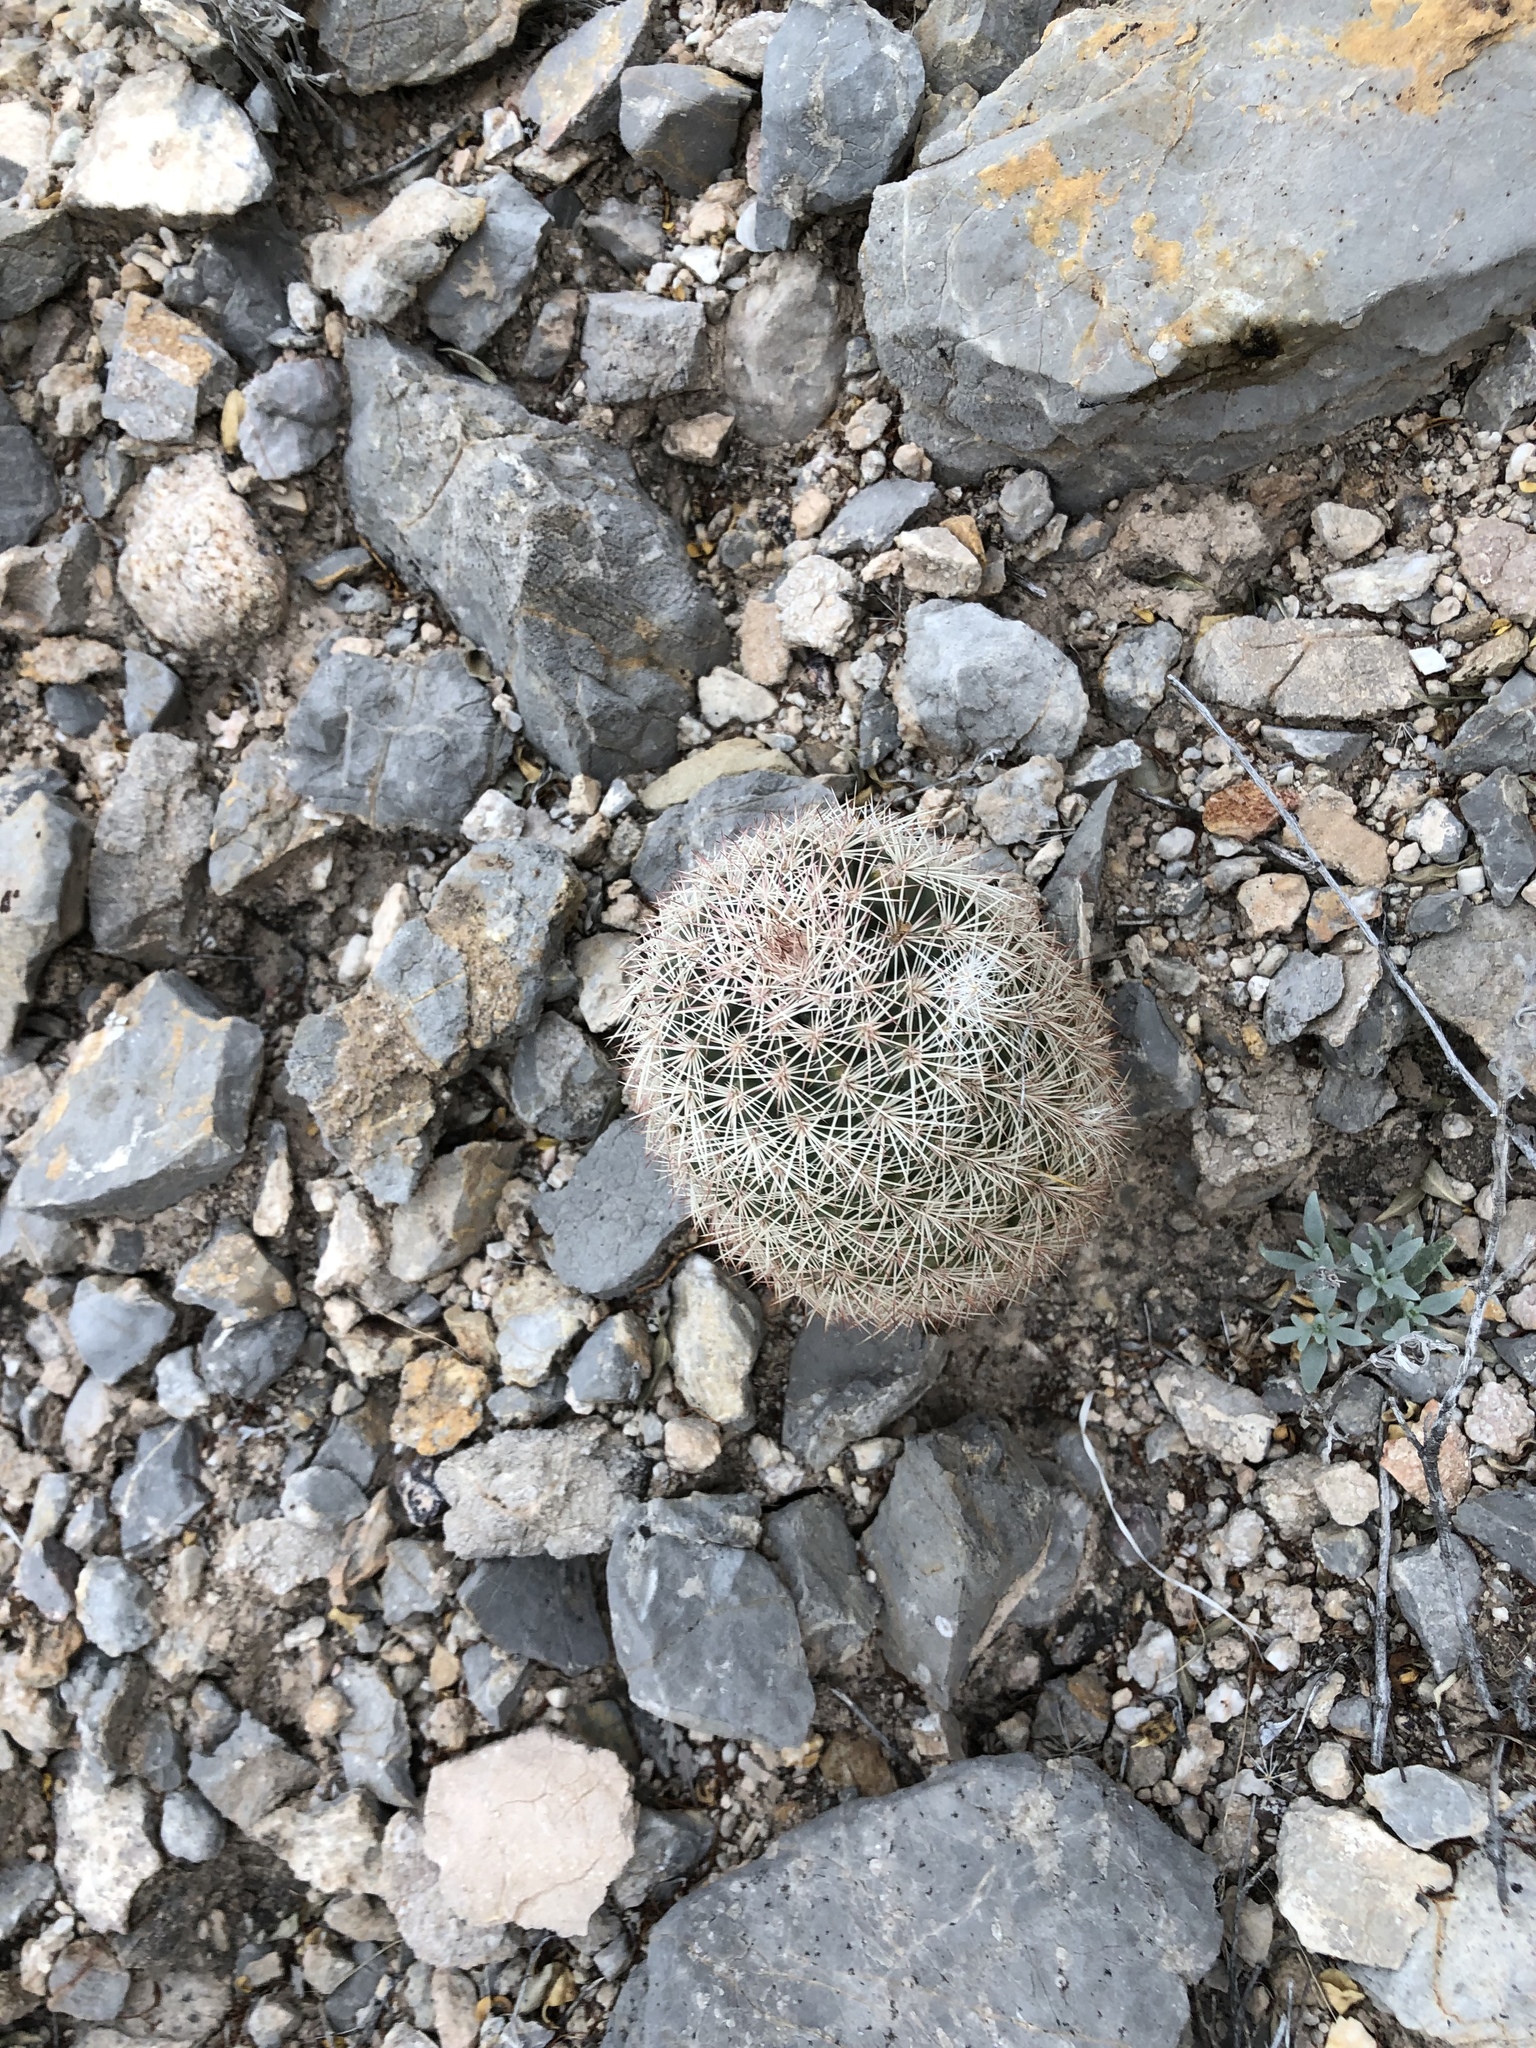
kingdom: Plantae
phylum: Tracheophyta
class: Magnoliopsida
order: Caryophyllales
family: Cactaceae
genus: Echinocereus
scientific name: Echinocereus dasyacanthus
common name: Spiny hedgehog cactus
